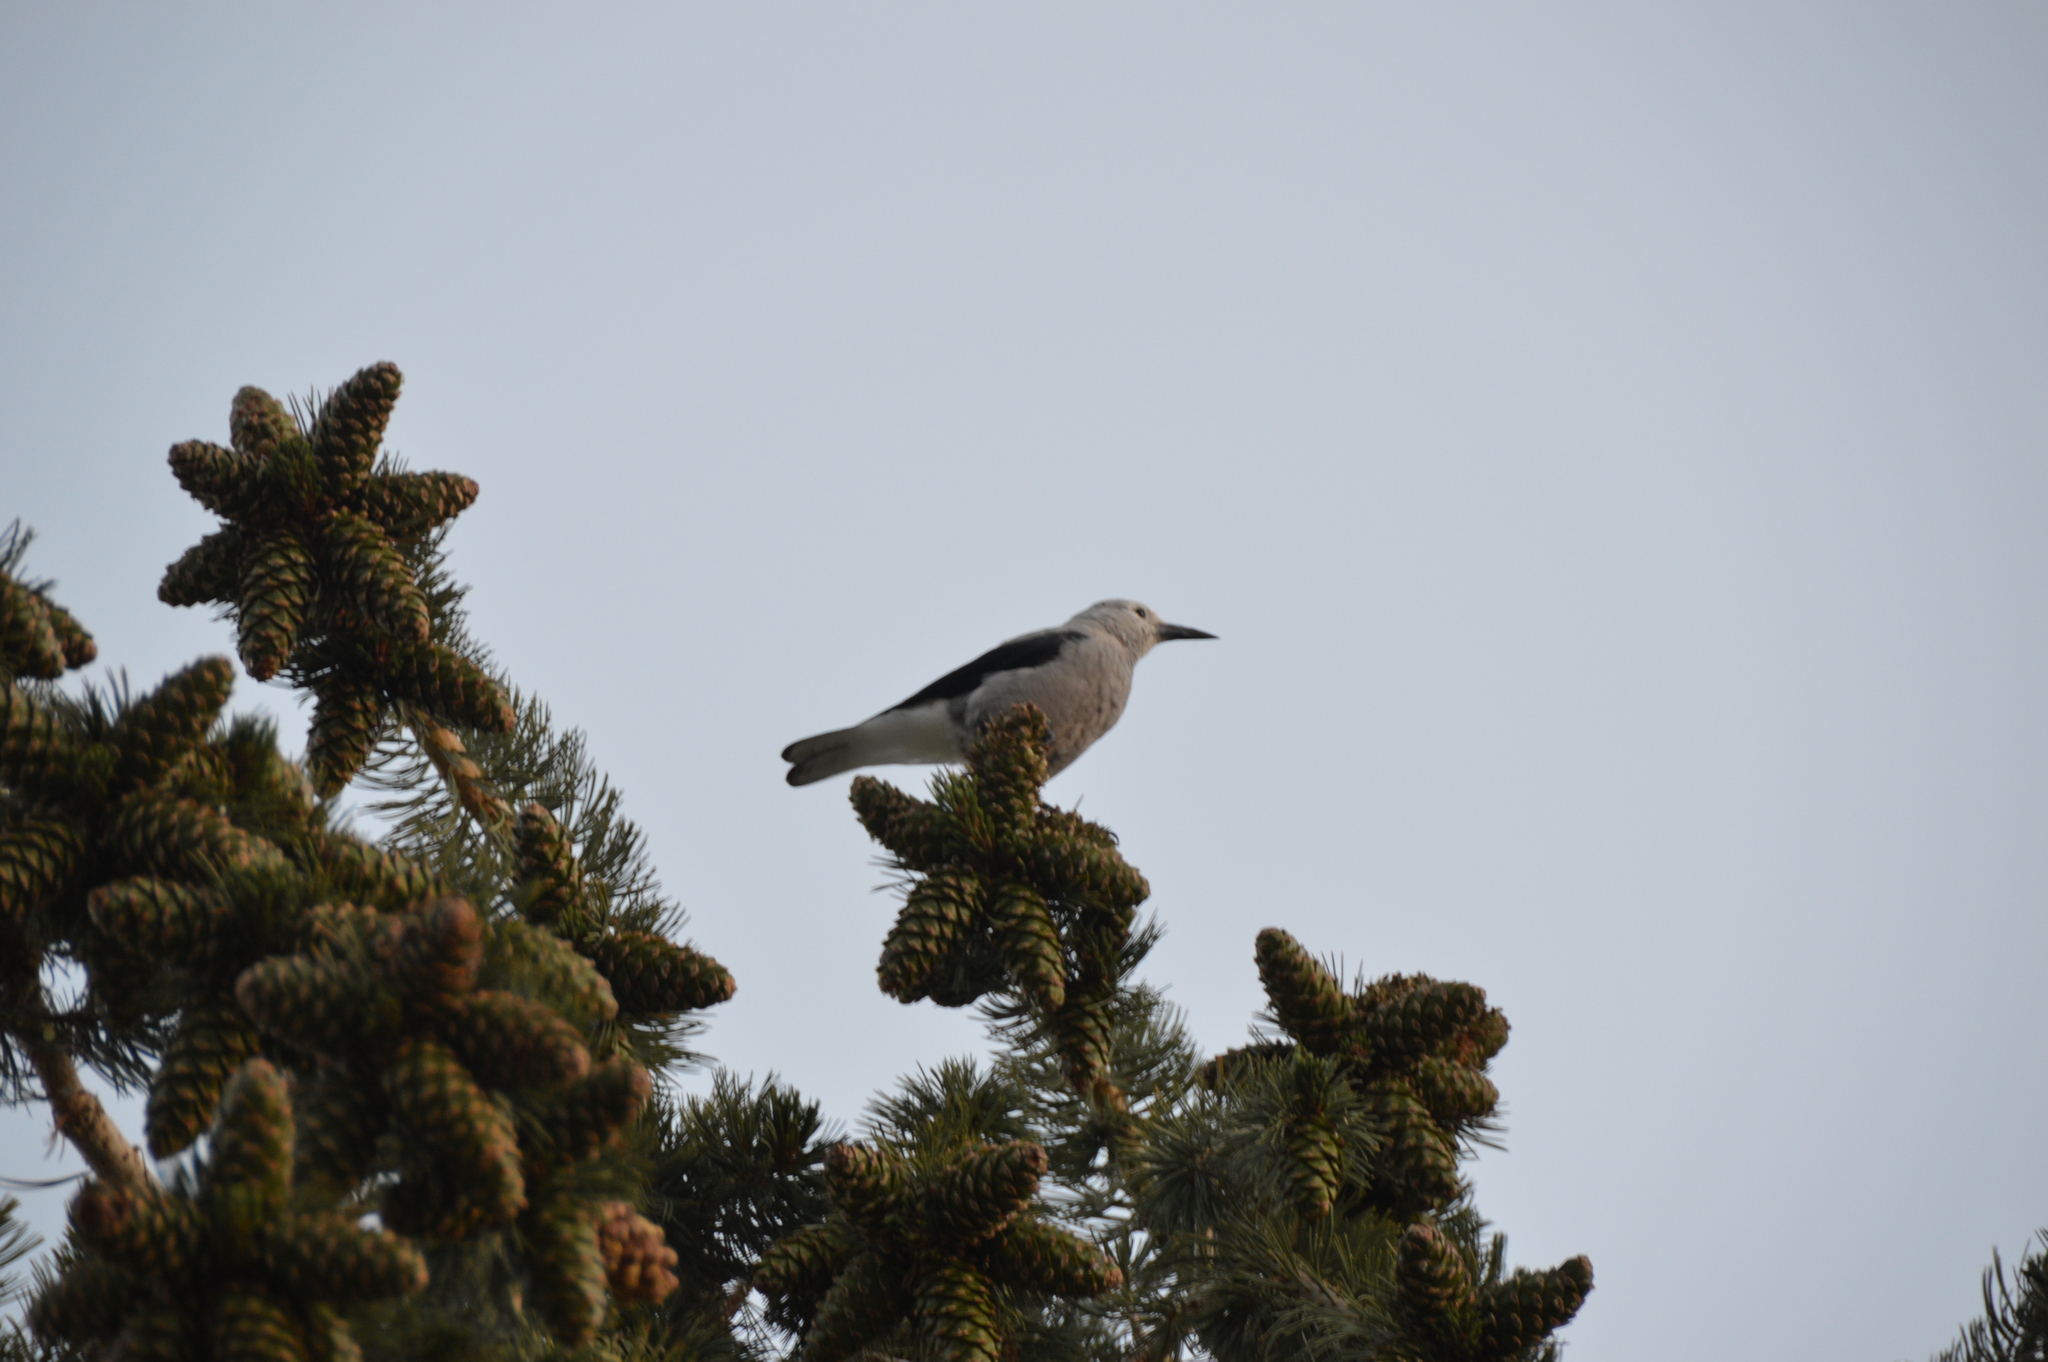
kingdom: Animalia
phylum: Chordata
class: Aves
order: Passeriformes
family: Corvidae
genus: Nucifraga
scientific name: Nucifraga columbiana
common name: Clark's nutcracker
